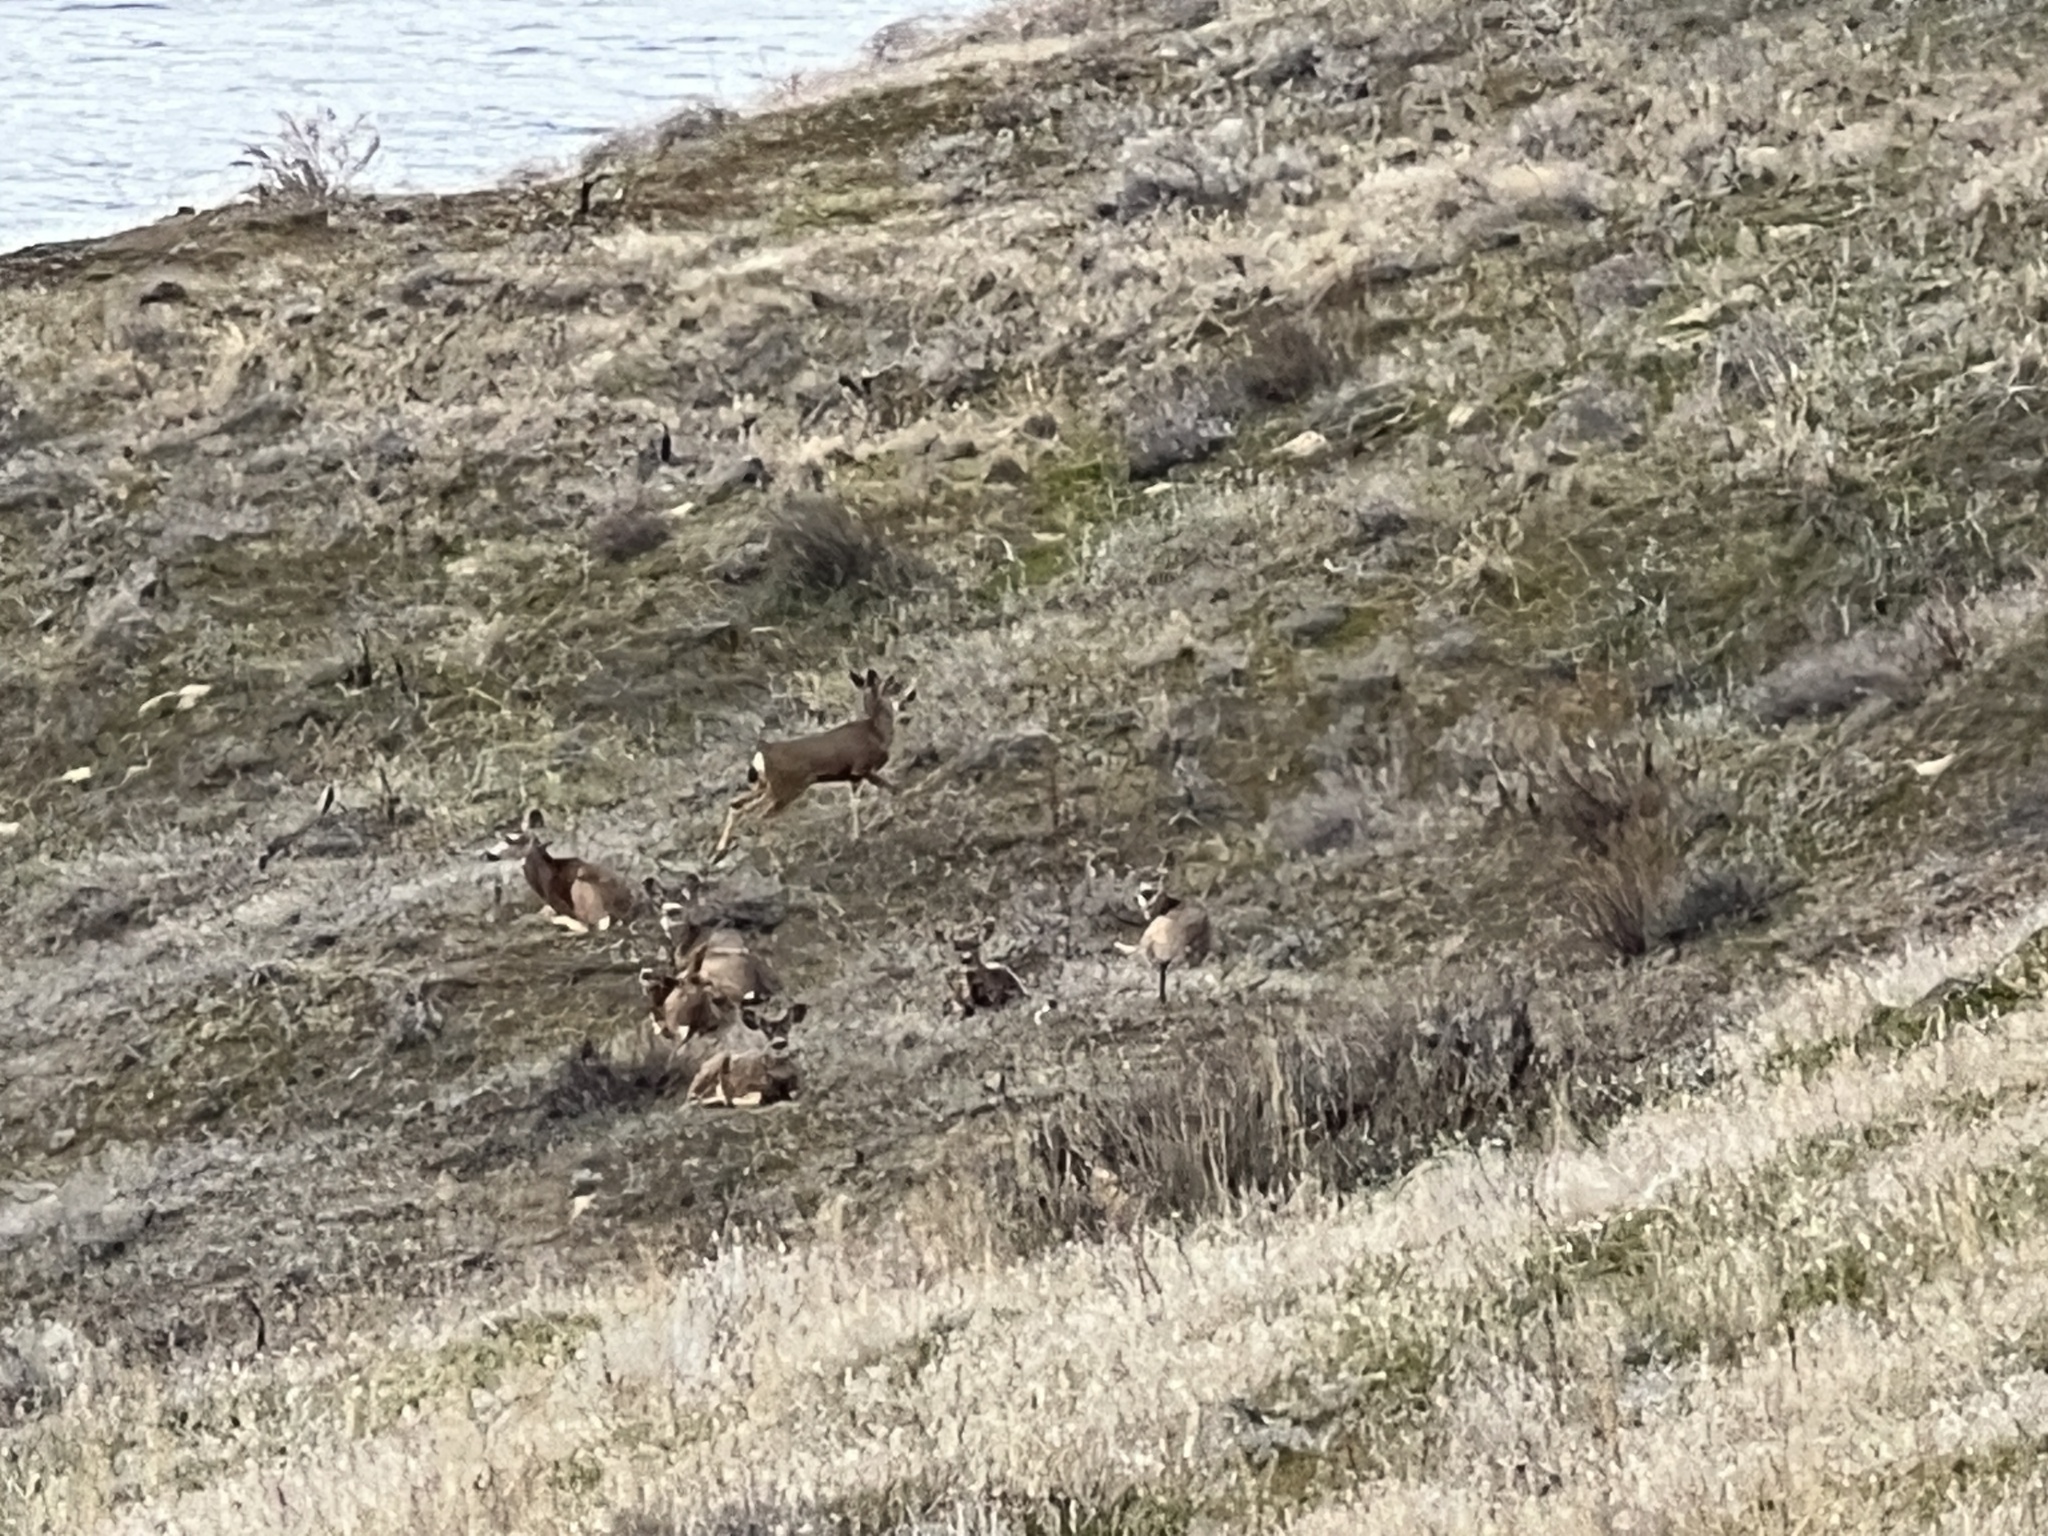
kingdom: Animalia
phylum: Chordata
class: Mammalia
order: Artiodactyla
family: Cervidae
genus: Odocoileus
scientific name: Odocoileus hemionus
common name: Mule deer
